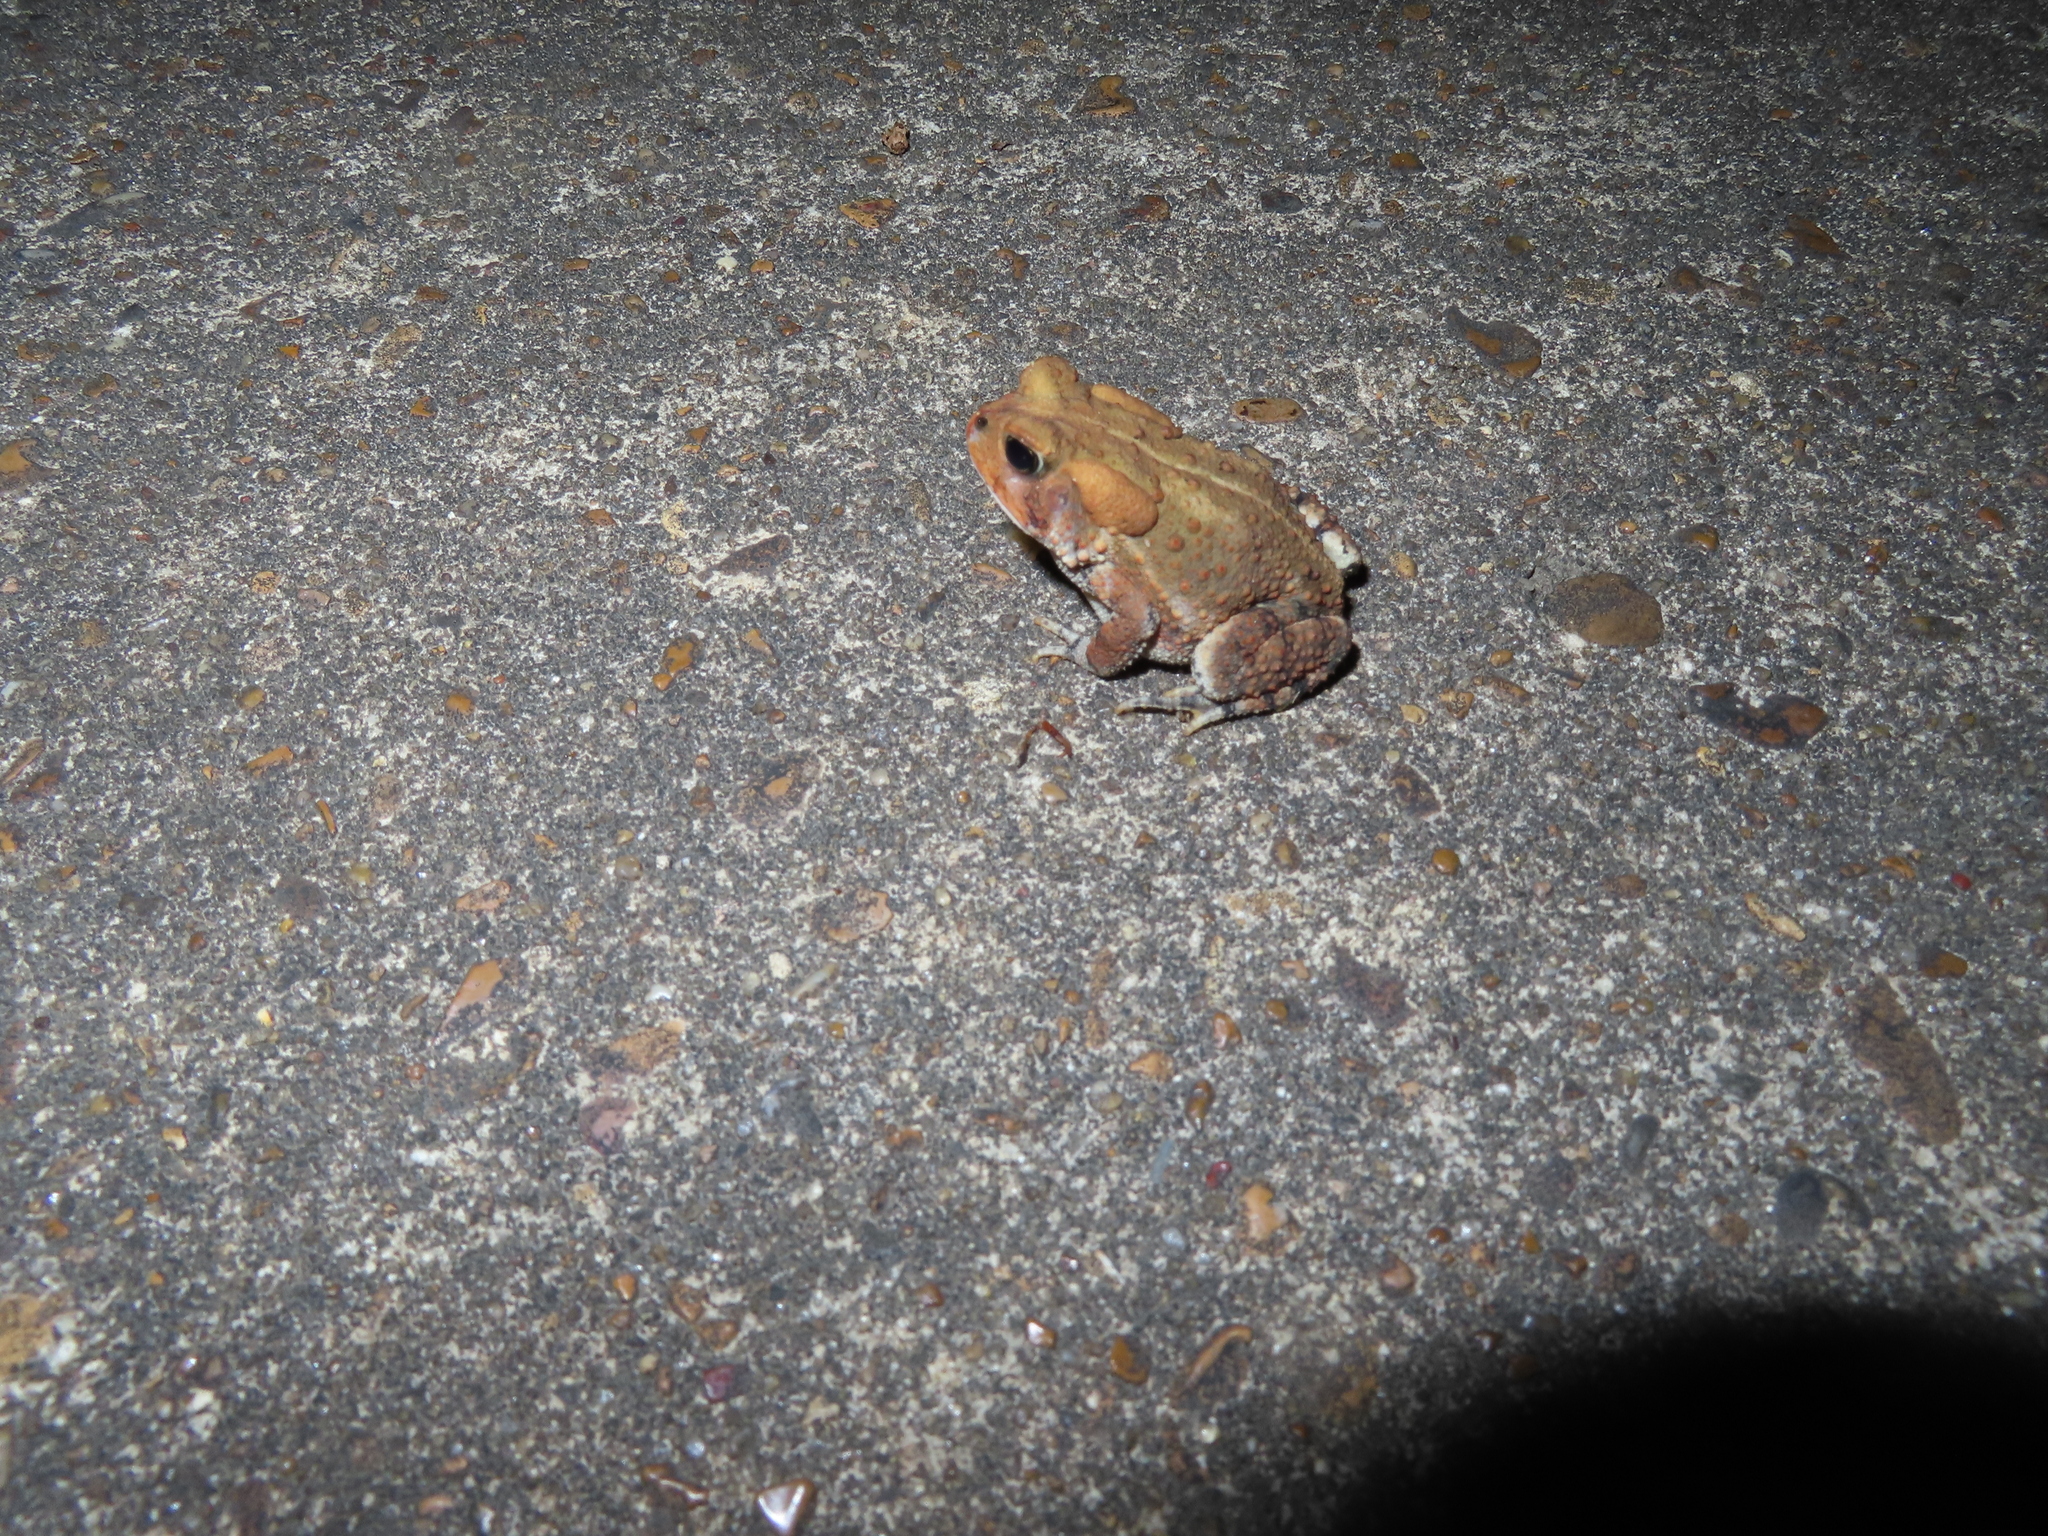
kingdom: Animalia
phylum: Chordata
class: Amphibia
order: Anura
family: Bufonidae
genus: Anaxyrus
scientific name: Anaxyrus fowleri
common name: Fowler's toad
